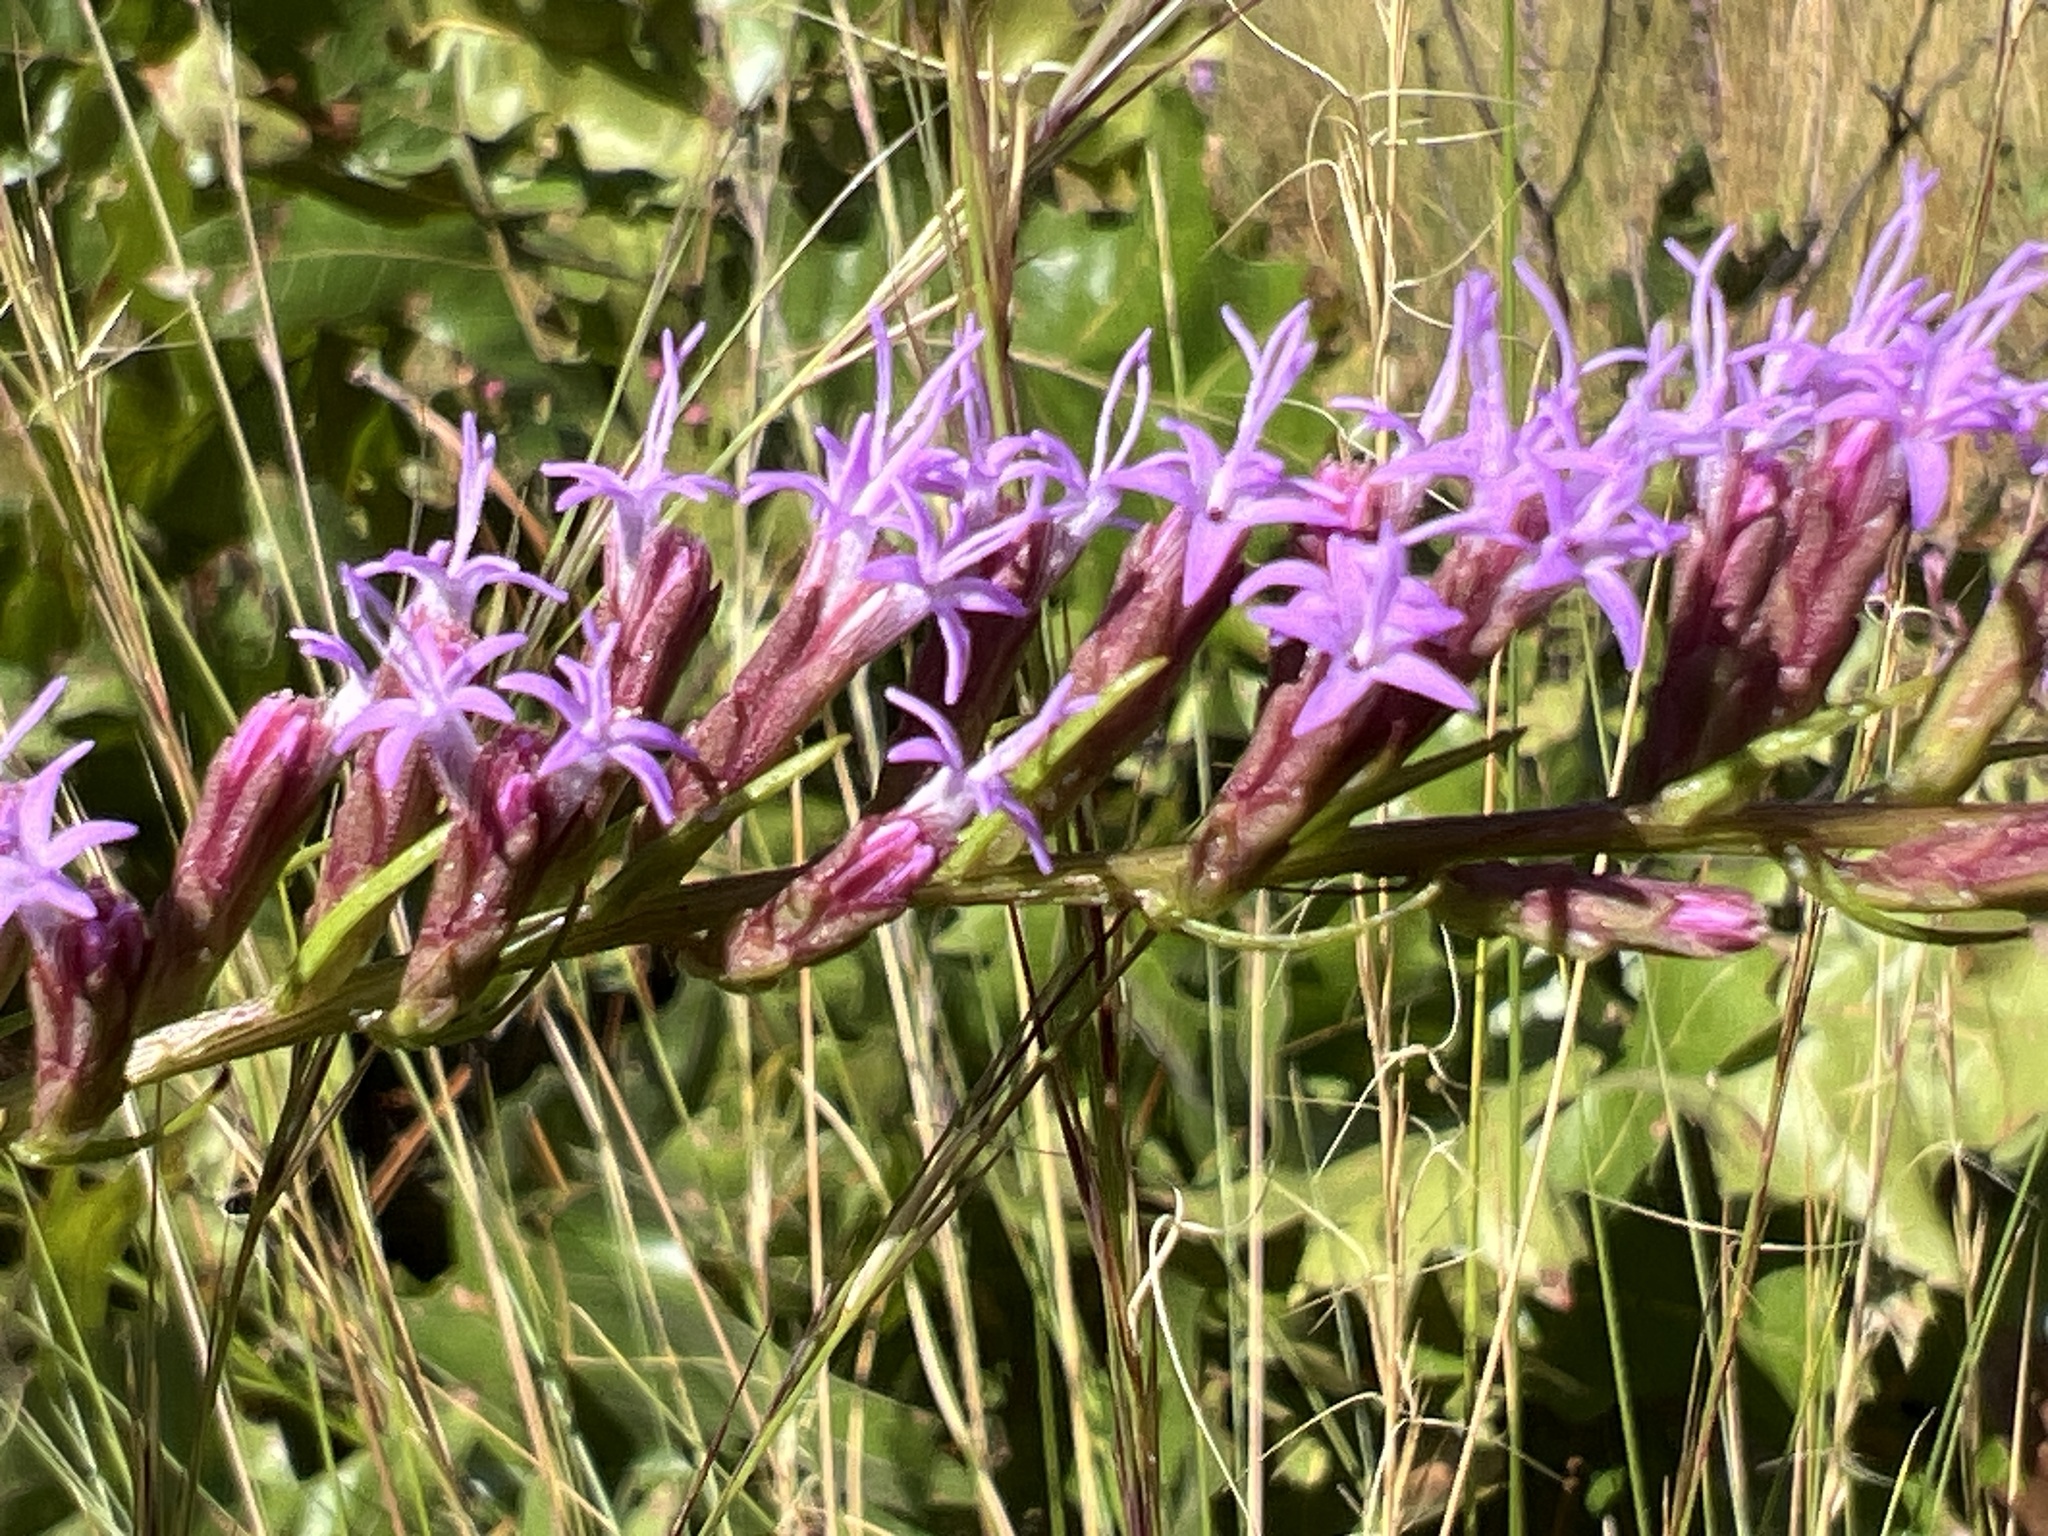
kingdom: Plantae
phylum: Tracheophyta
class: Magnoliopsida
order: Asterales
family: Asteraceae
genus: Liatris
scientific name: Liatris cokeri
